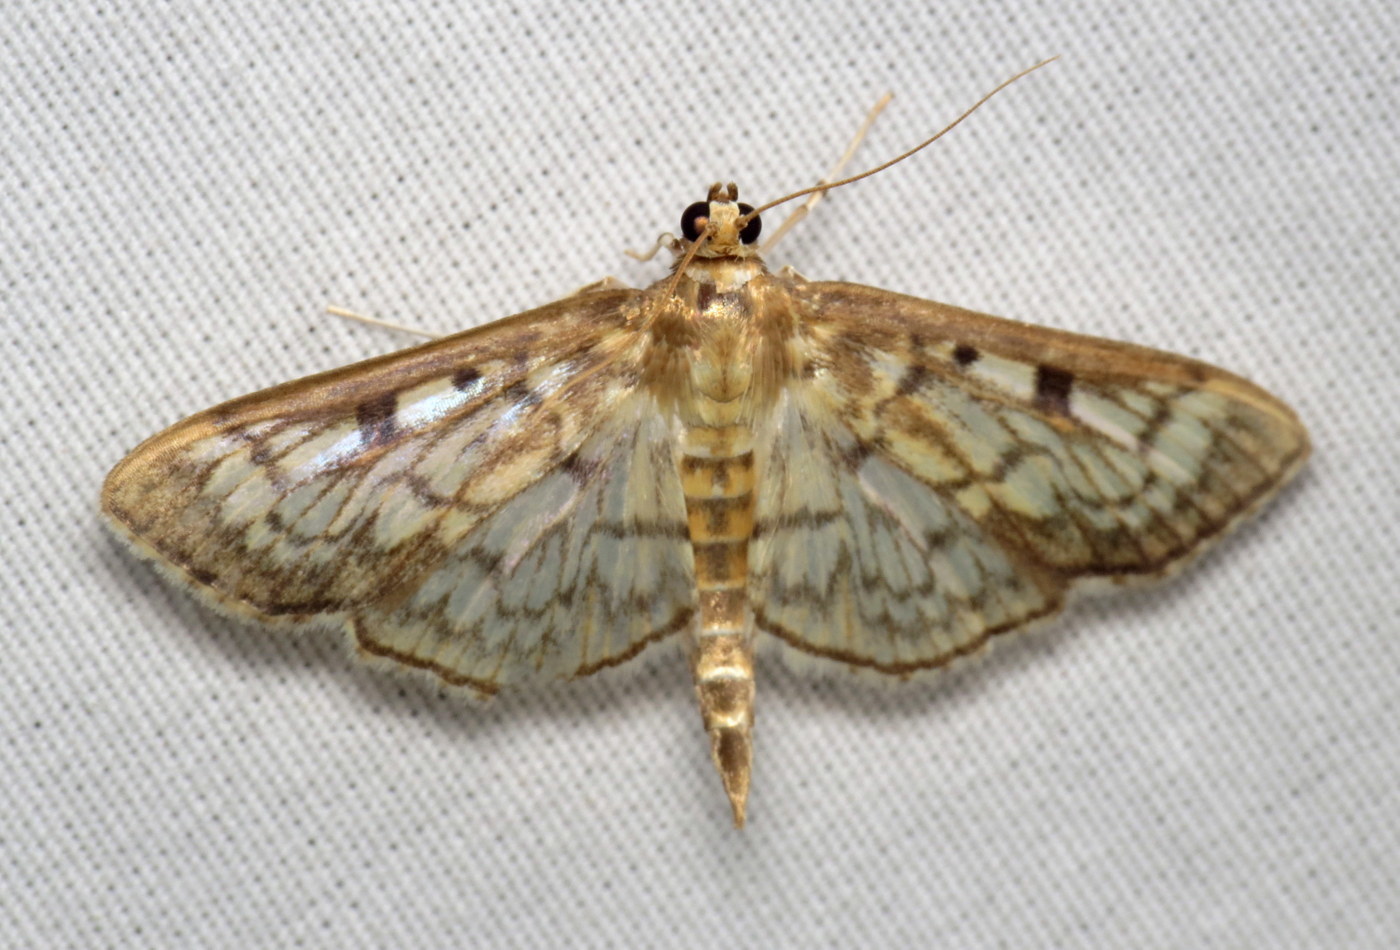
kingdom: Animalia
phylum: Arthropoda
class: Insecta
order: Lepidoptera
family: Crambidae
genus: Herpetogramma
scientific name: Herpetogramma thestealis
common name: Zigzag herpetogramma moth
